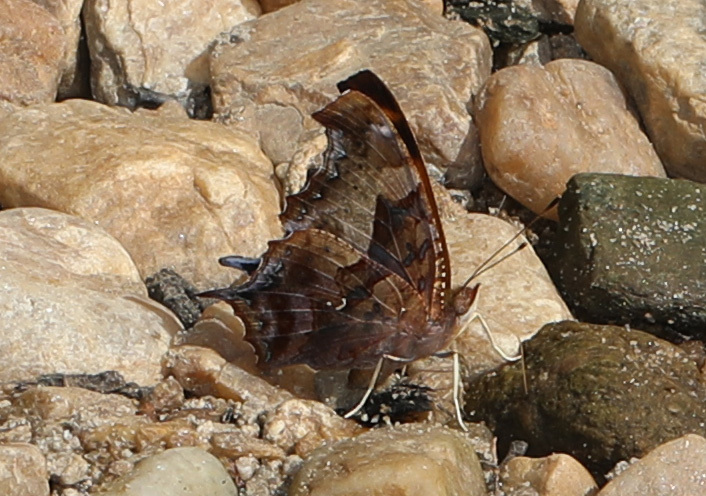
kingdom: Animalia
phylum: Arthropoda
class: Insecta
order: Lepidoptera
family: Nymphalidae
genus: Polygonia
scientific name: Polygonia interrogationis
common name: Question mark
